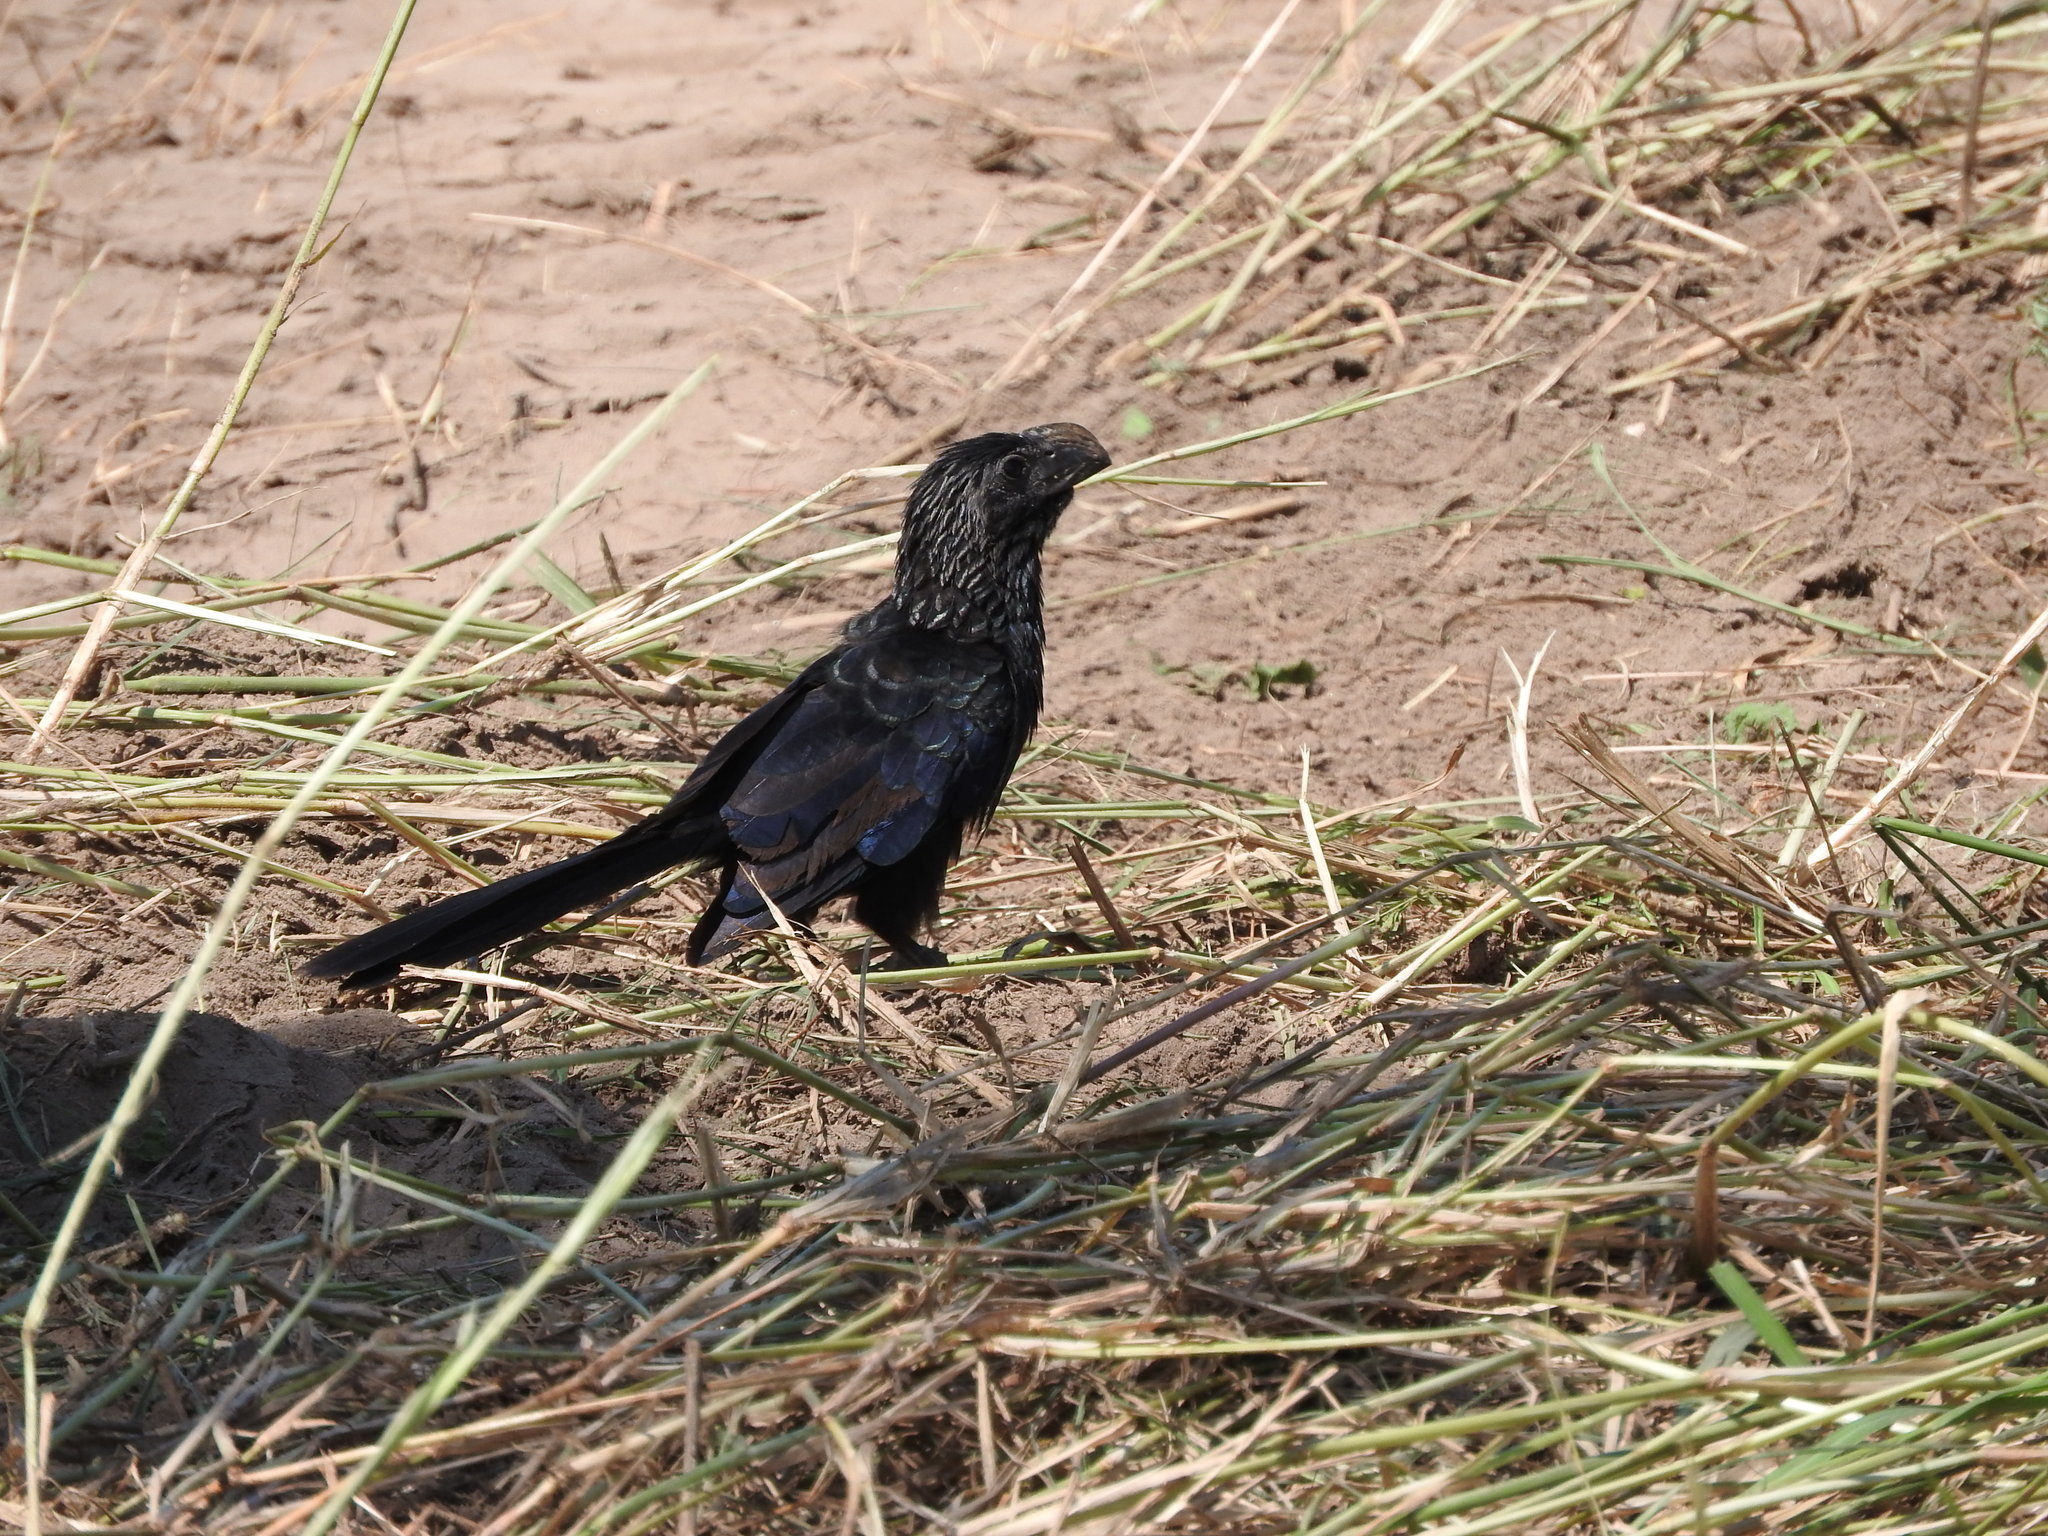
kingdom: Animalia
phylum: Chordata
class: Aves
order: Cuculiformes
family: Cuculidae
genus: Crotophaga
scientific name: Crotophaga sulcirostris
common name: Groove-billed ani
